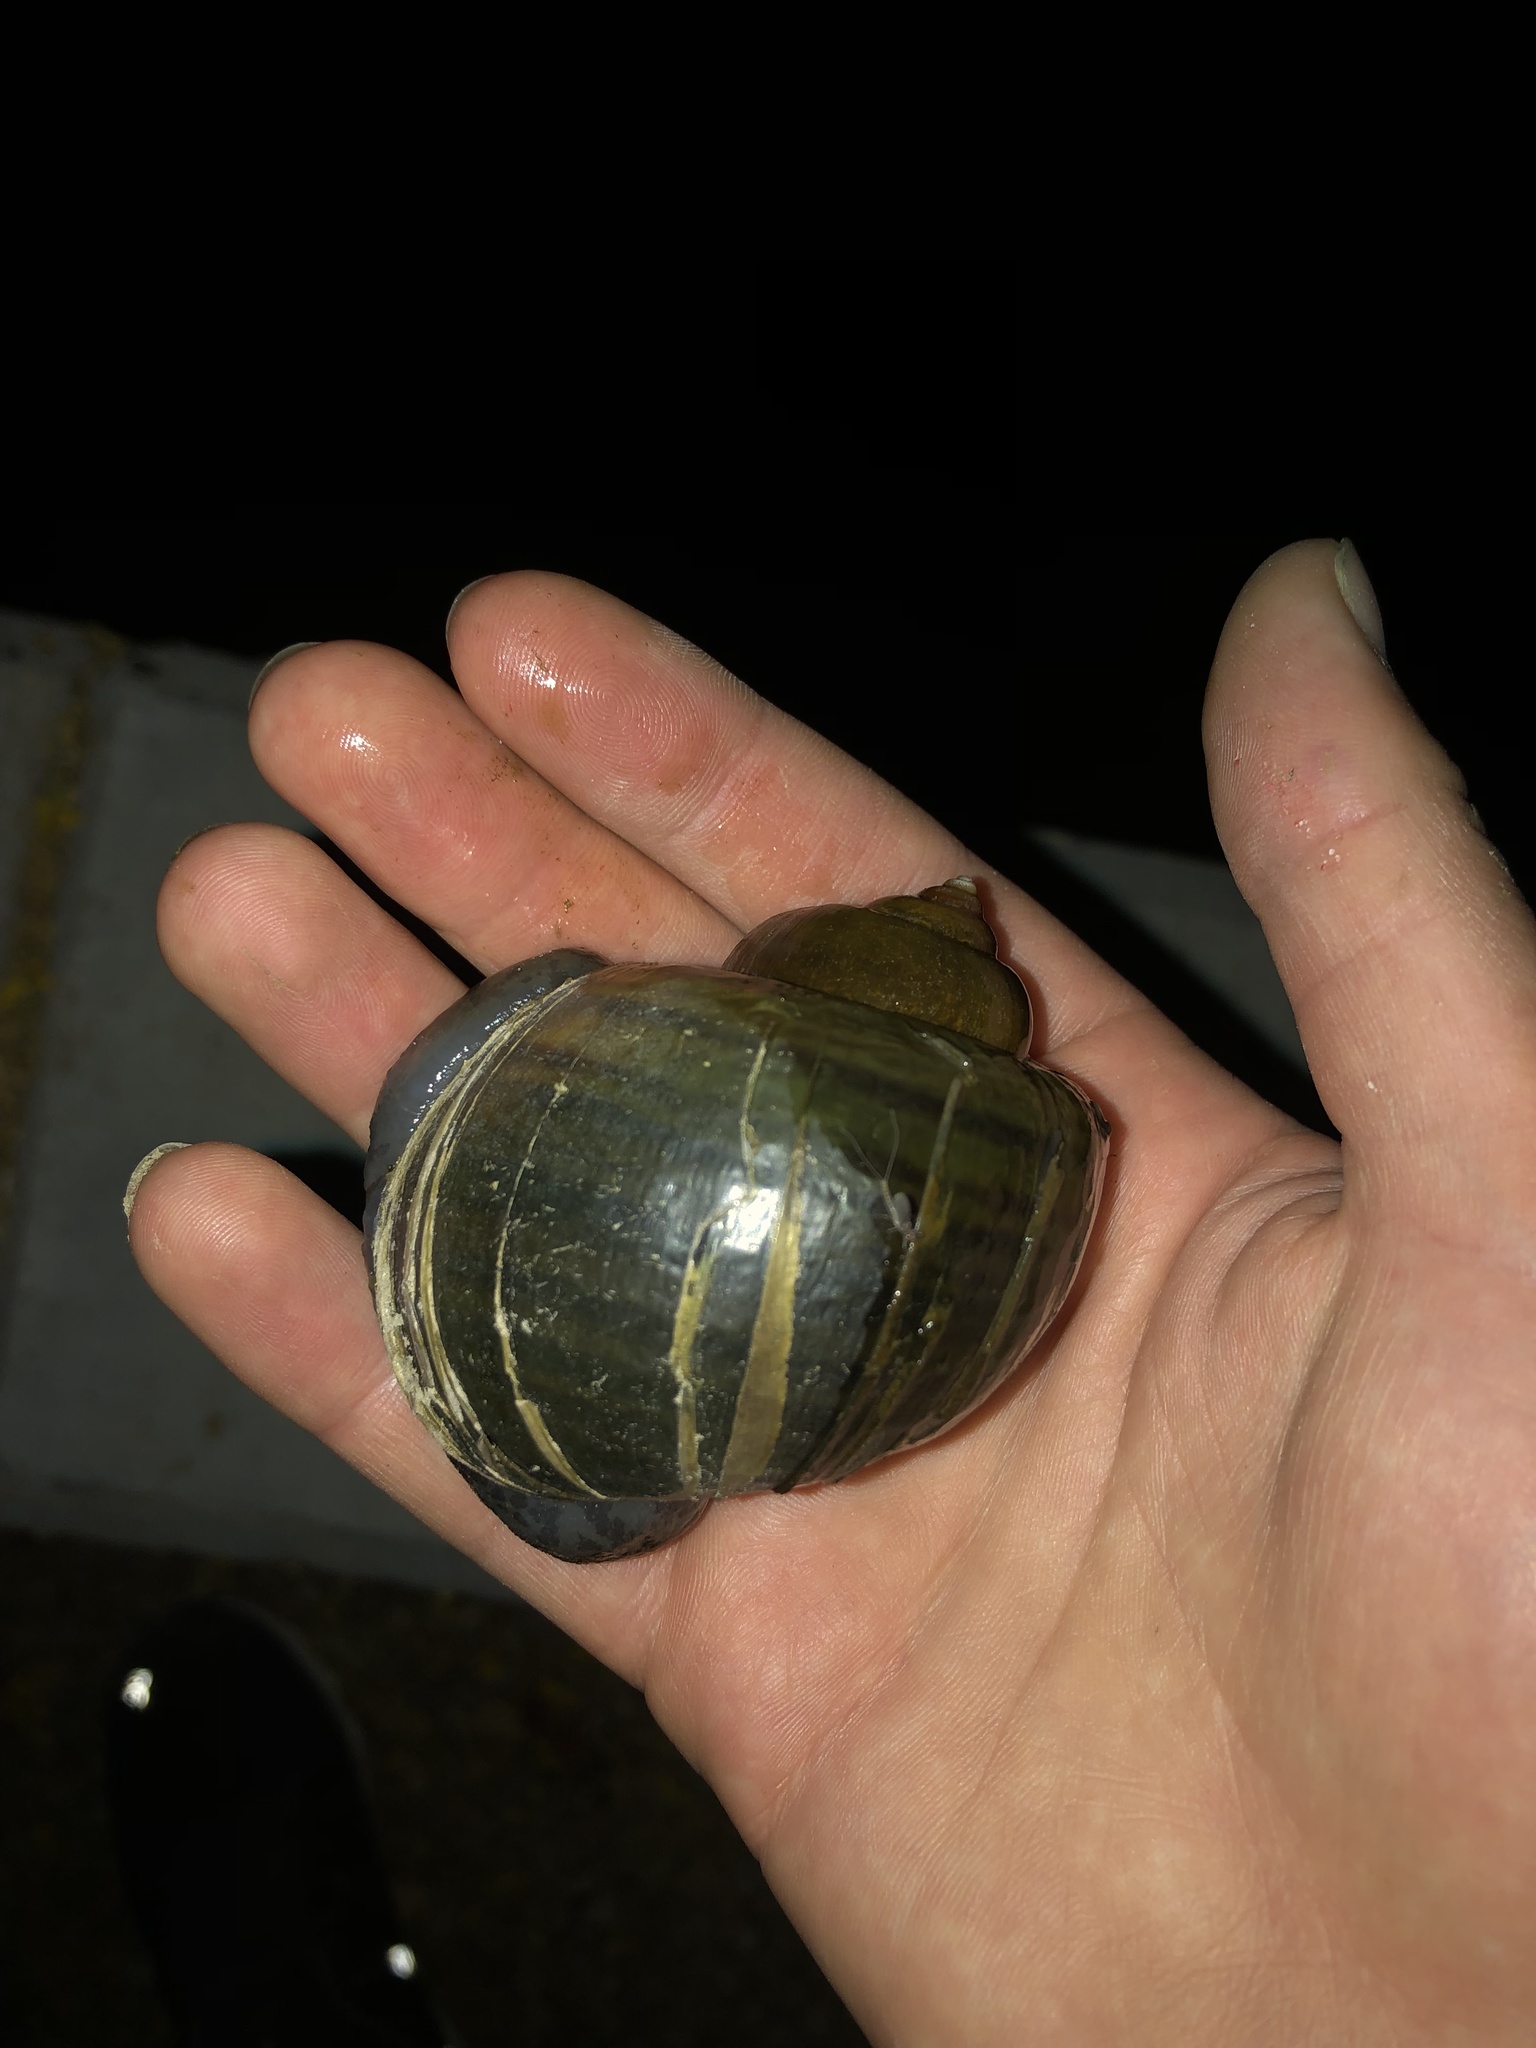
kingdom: Animalia
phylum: Mollusca
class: Gastropoda
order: Architaenioglossa
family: Ampullariidae
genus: Pomacea
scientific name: Pomacea canaliculata
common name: Channeled applesnail
